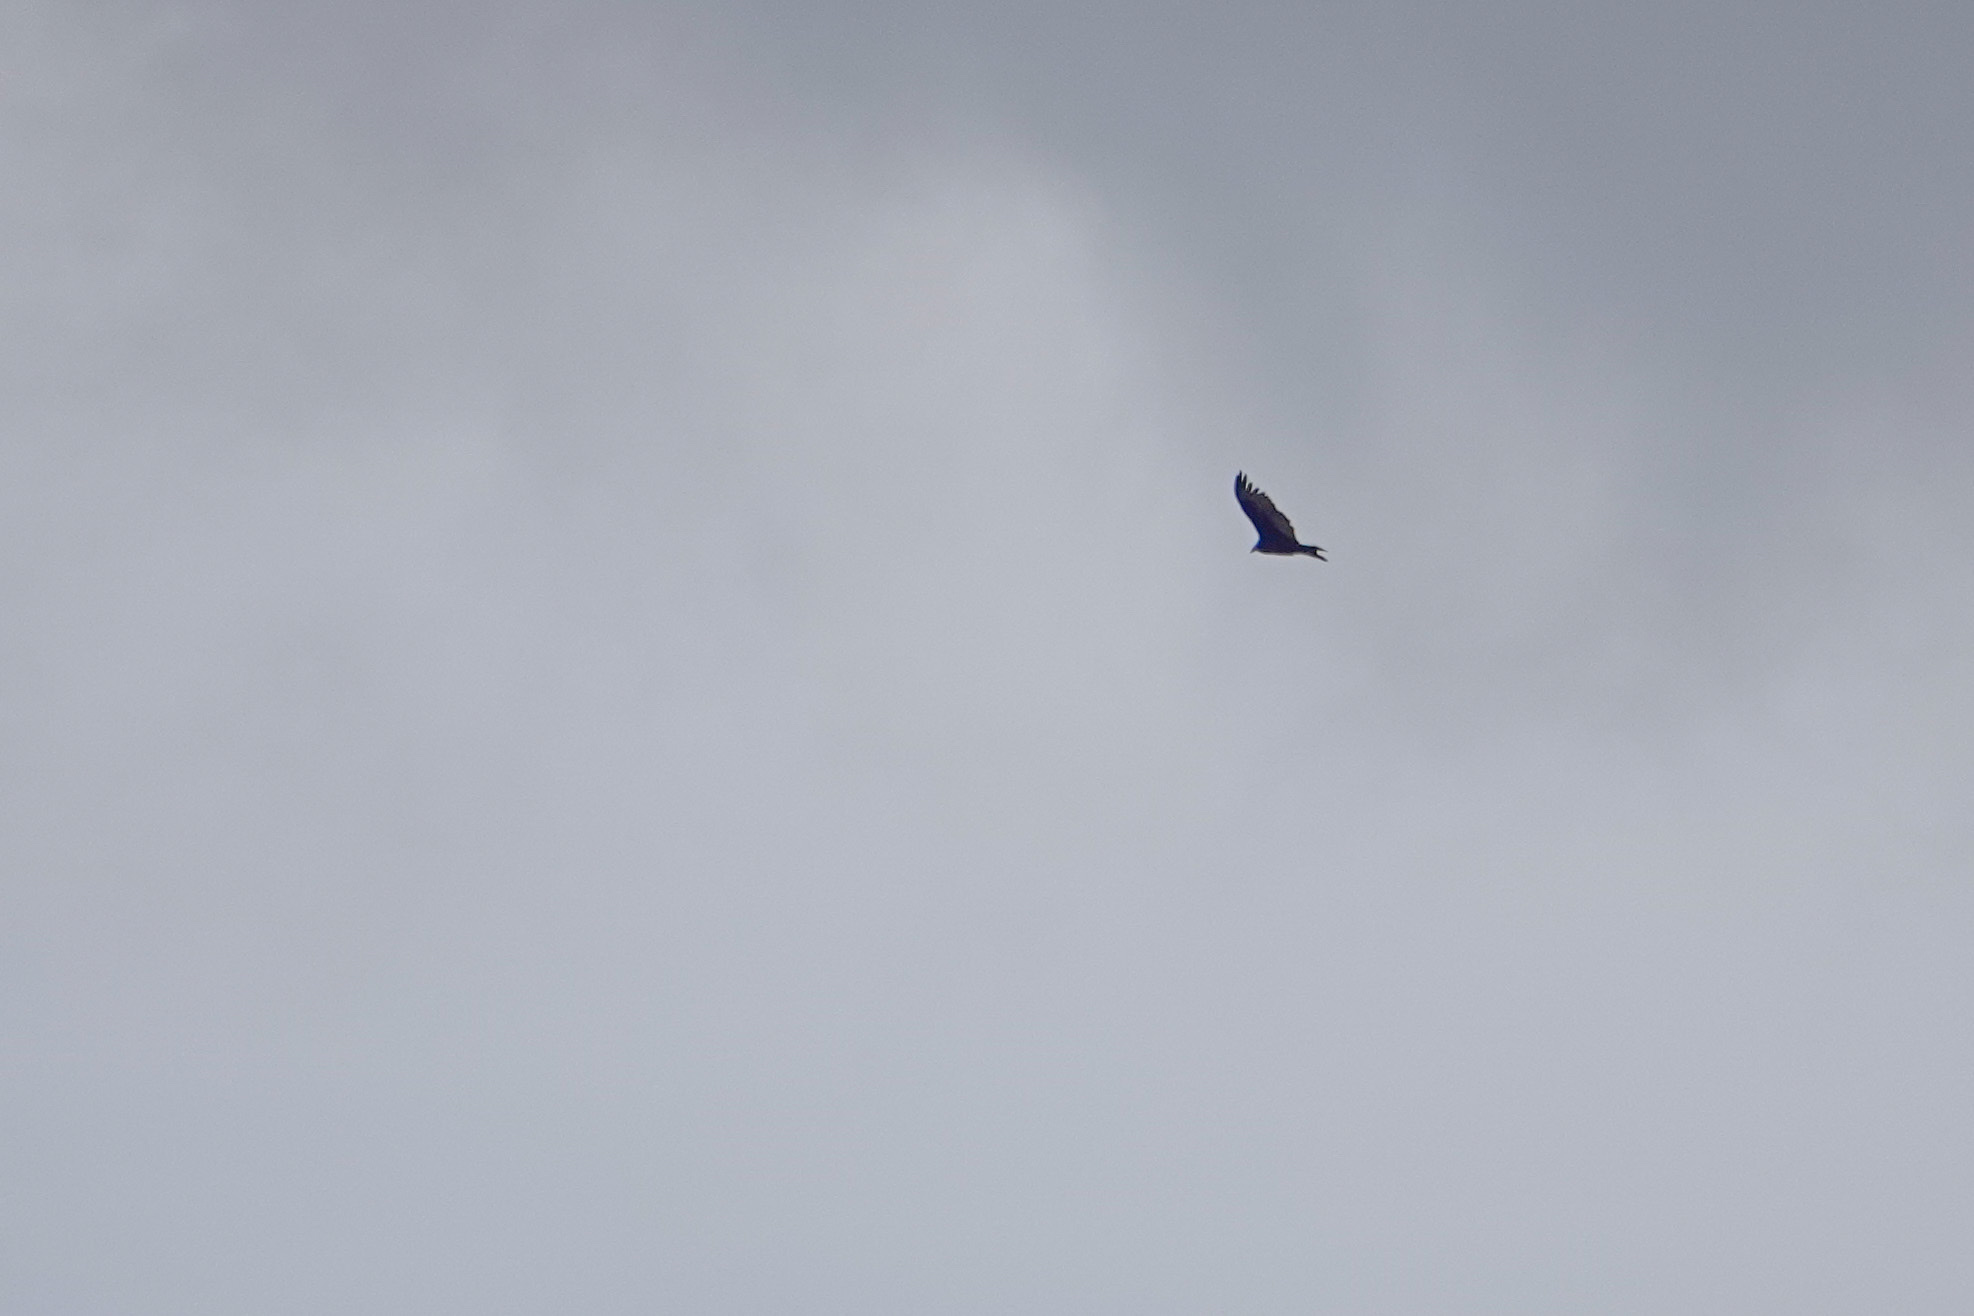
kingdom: Animalia
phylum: Chordata
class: Aves
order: Accipitriformes
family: Cathartidae
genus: Cathartes
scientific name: Cathartes aura
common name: Turkey vulture
